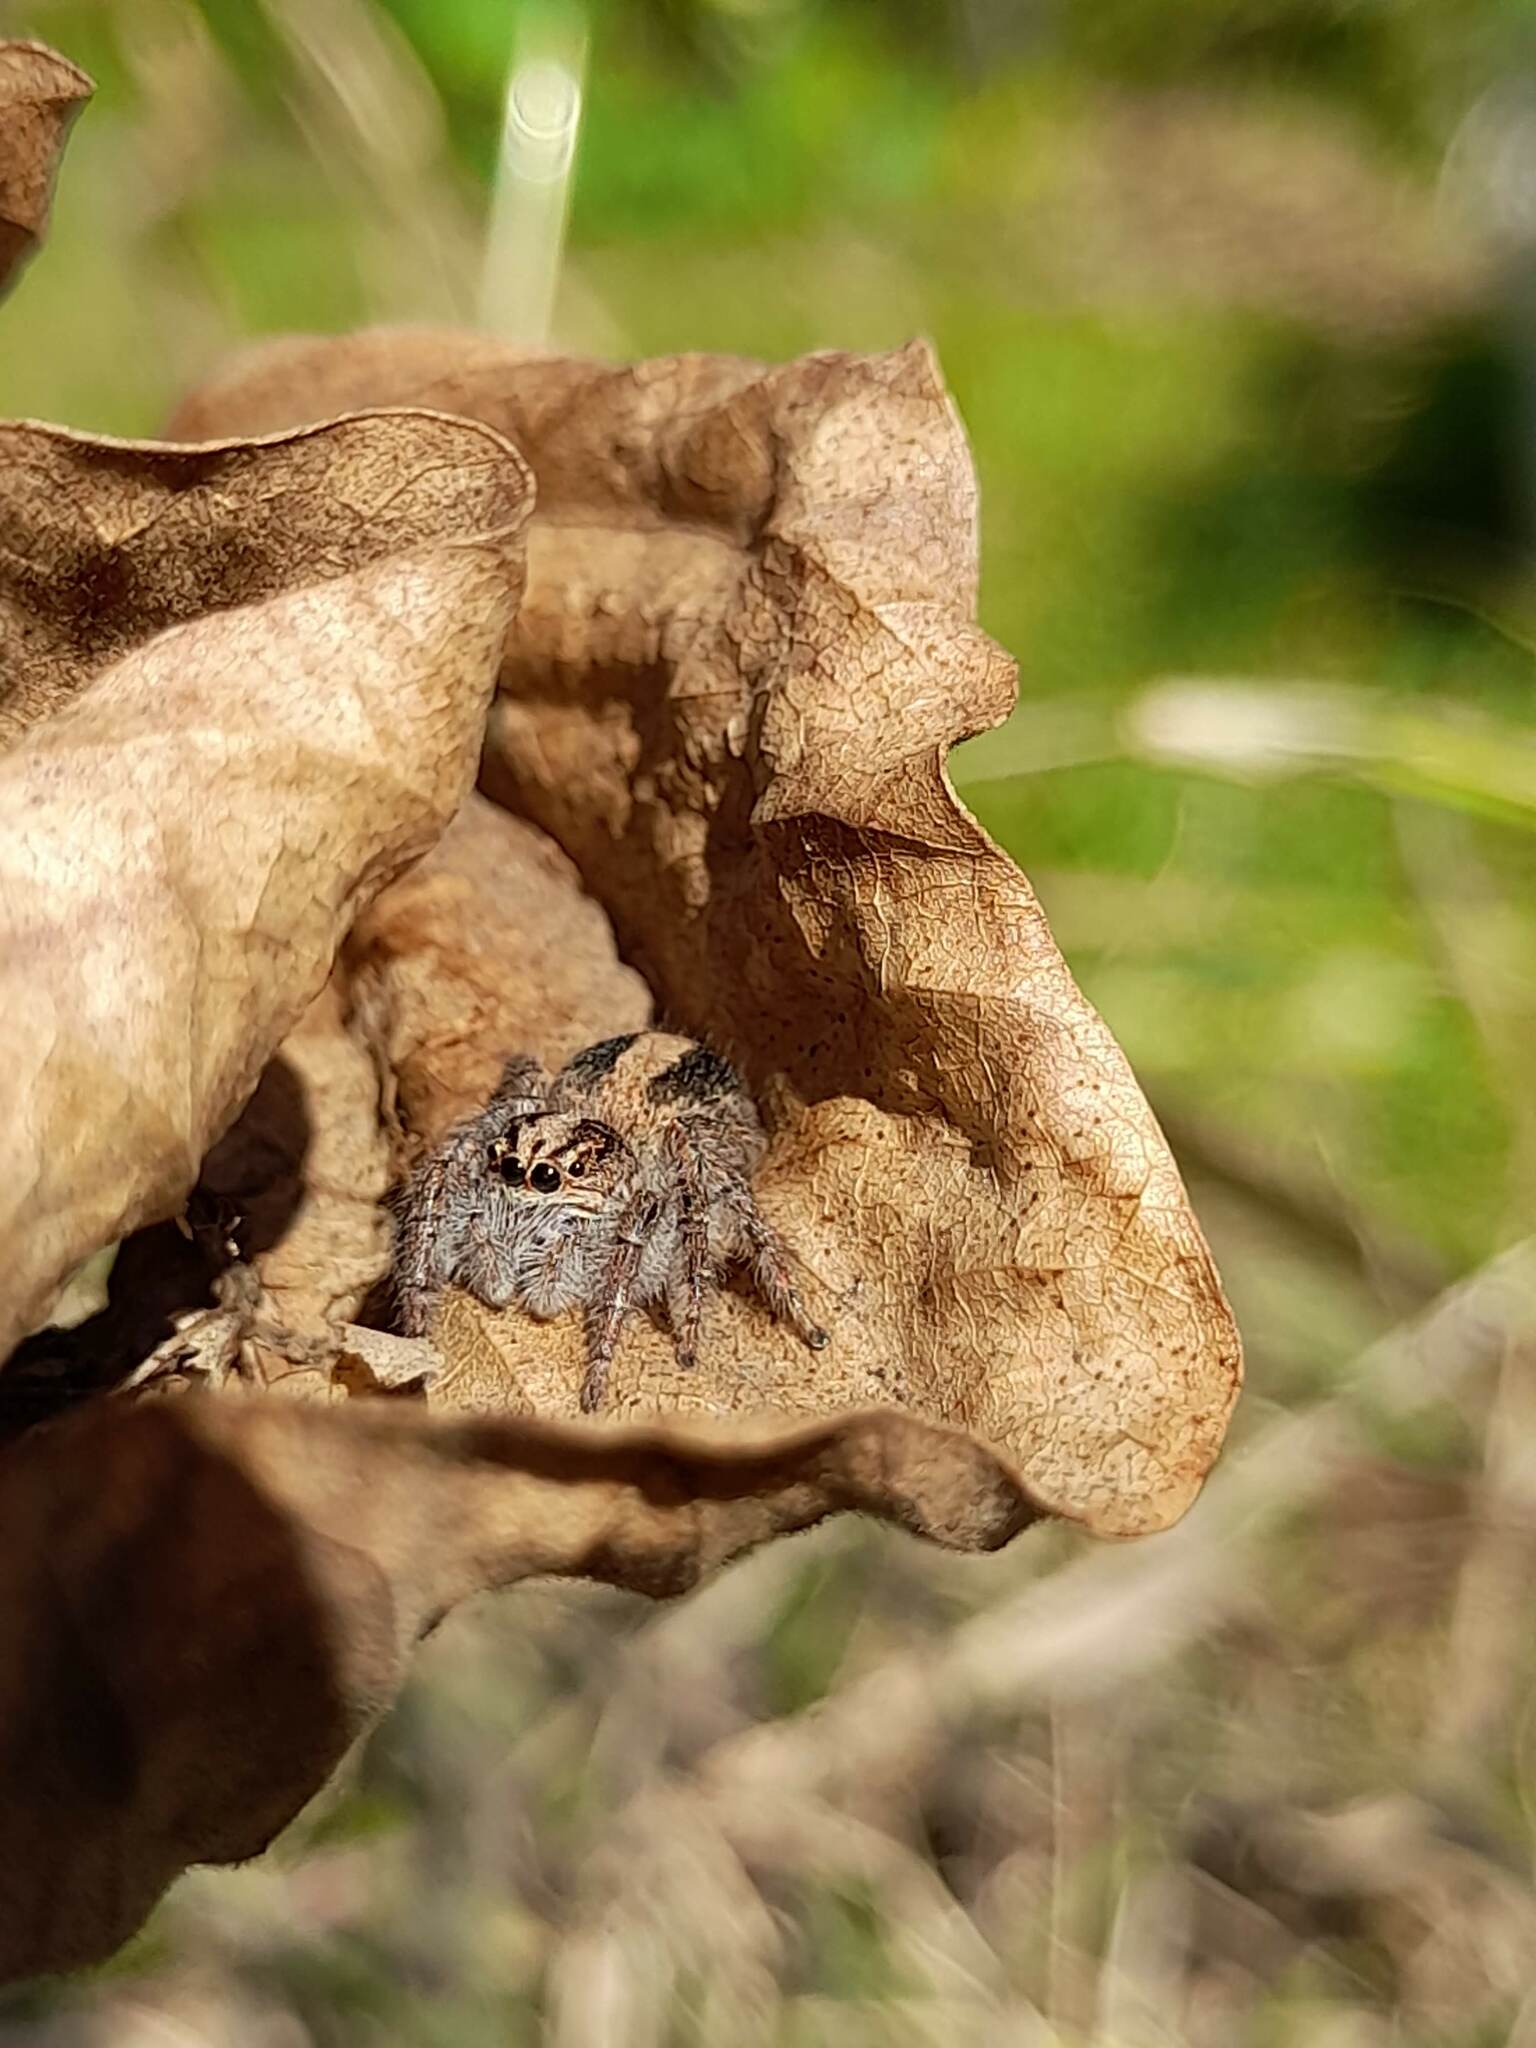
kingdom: Animalia
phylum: Arthropoda
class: Arachnida
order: Araneae
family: Salticidae
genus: Megafreya
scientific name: Megafreya sutrix
